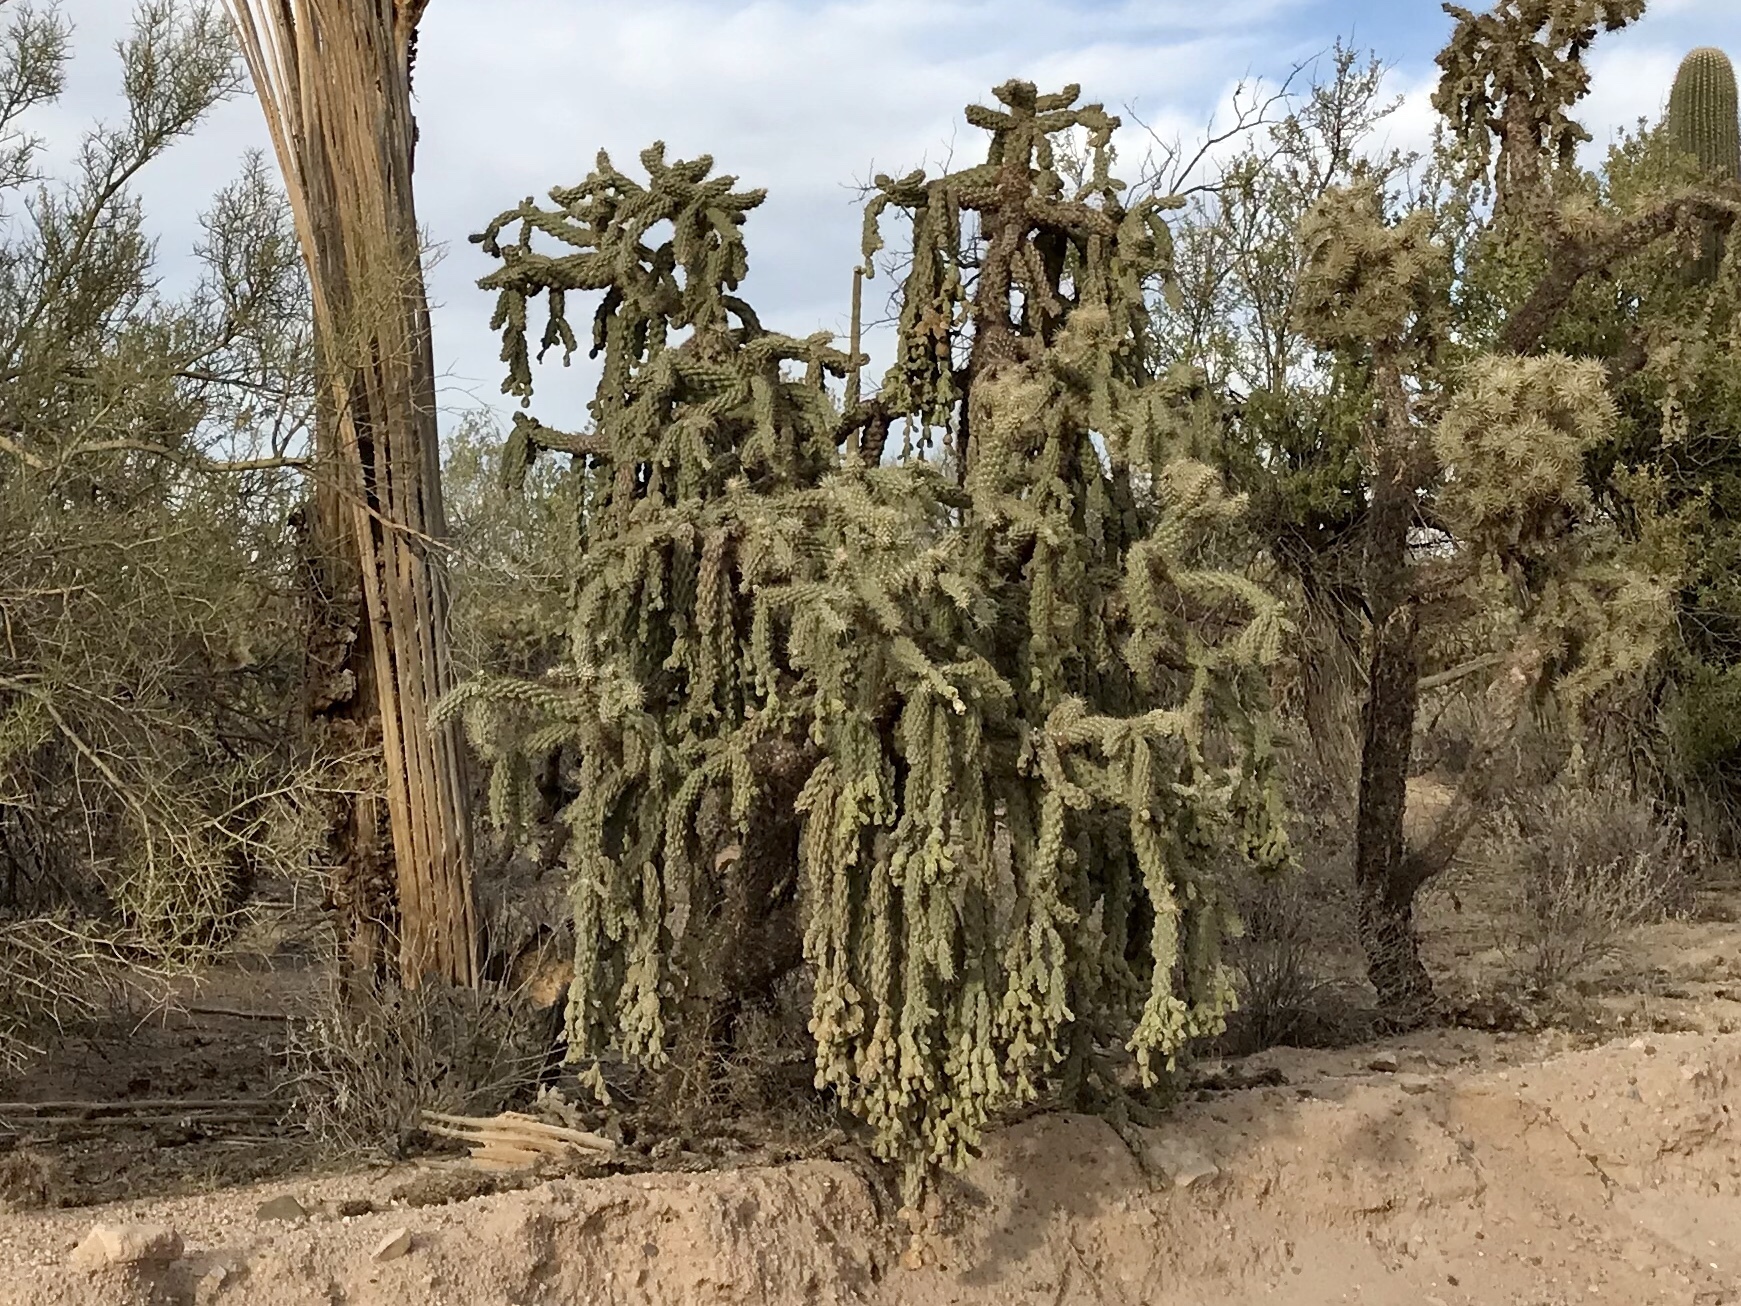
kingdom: Plantae
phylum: Tracheophyta
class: Magnoliopsida
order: Caryophyllales
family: Cactaceae
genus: Cylindropuntia
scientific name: Cylindropuntia fulgida
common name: Jumping cholla
